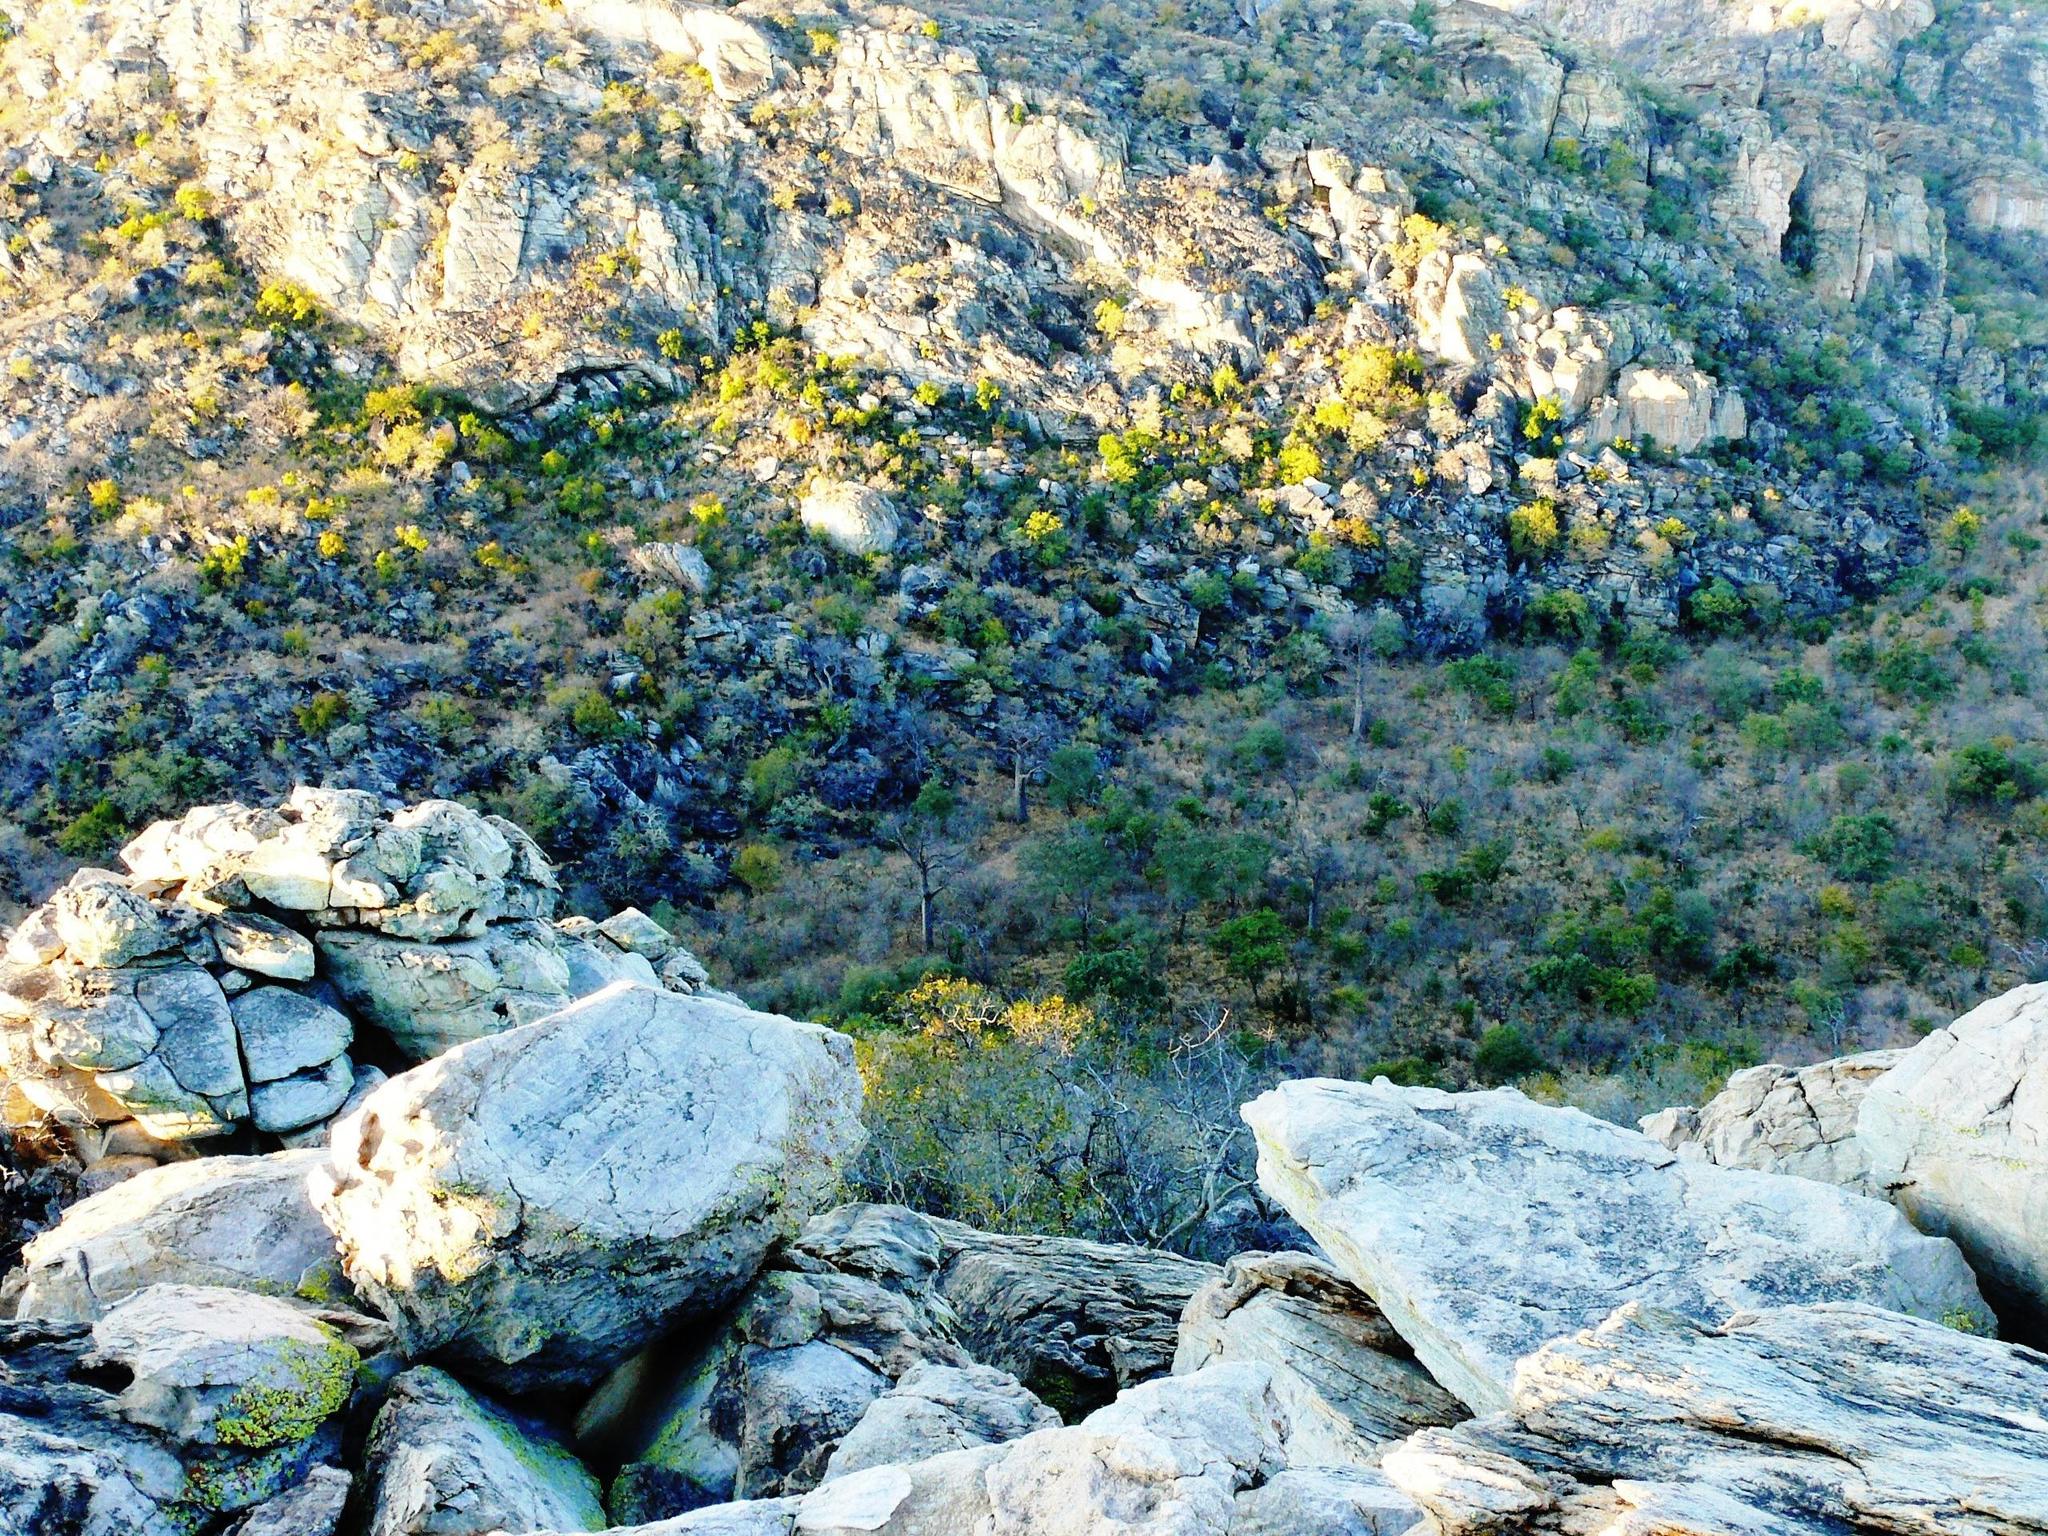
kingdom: Plantae
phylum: Tracheophyta
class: Magnoliopsida
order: Malvales
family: Malvaceae
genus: Adansonia
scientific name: Adansonia digitata
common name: Dead-rat-tree
